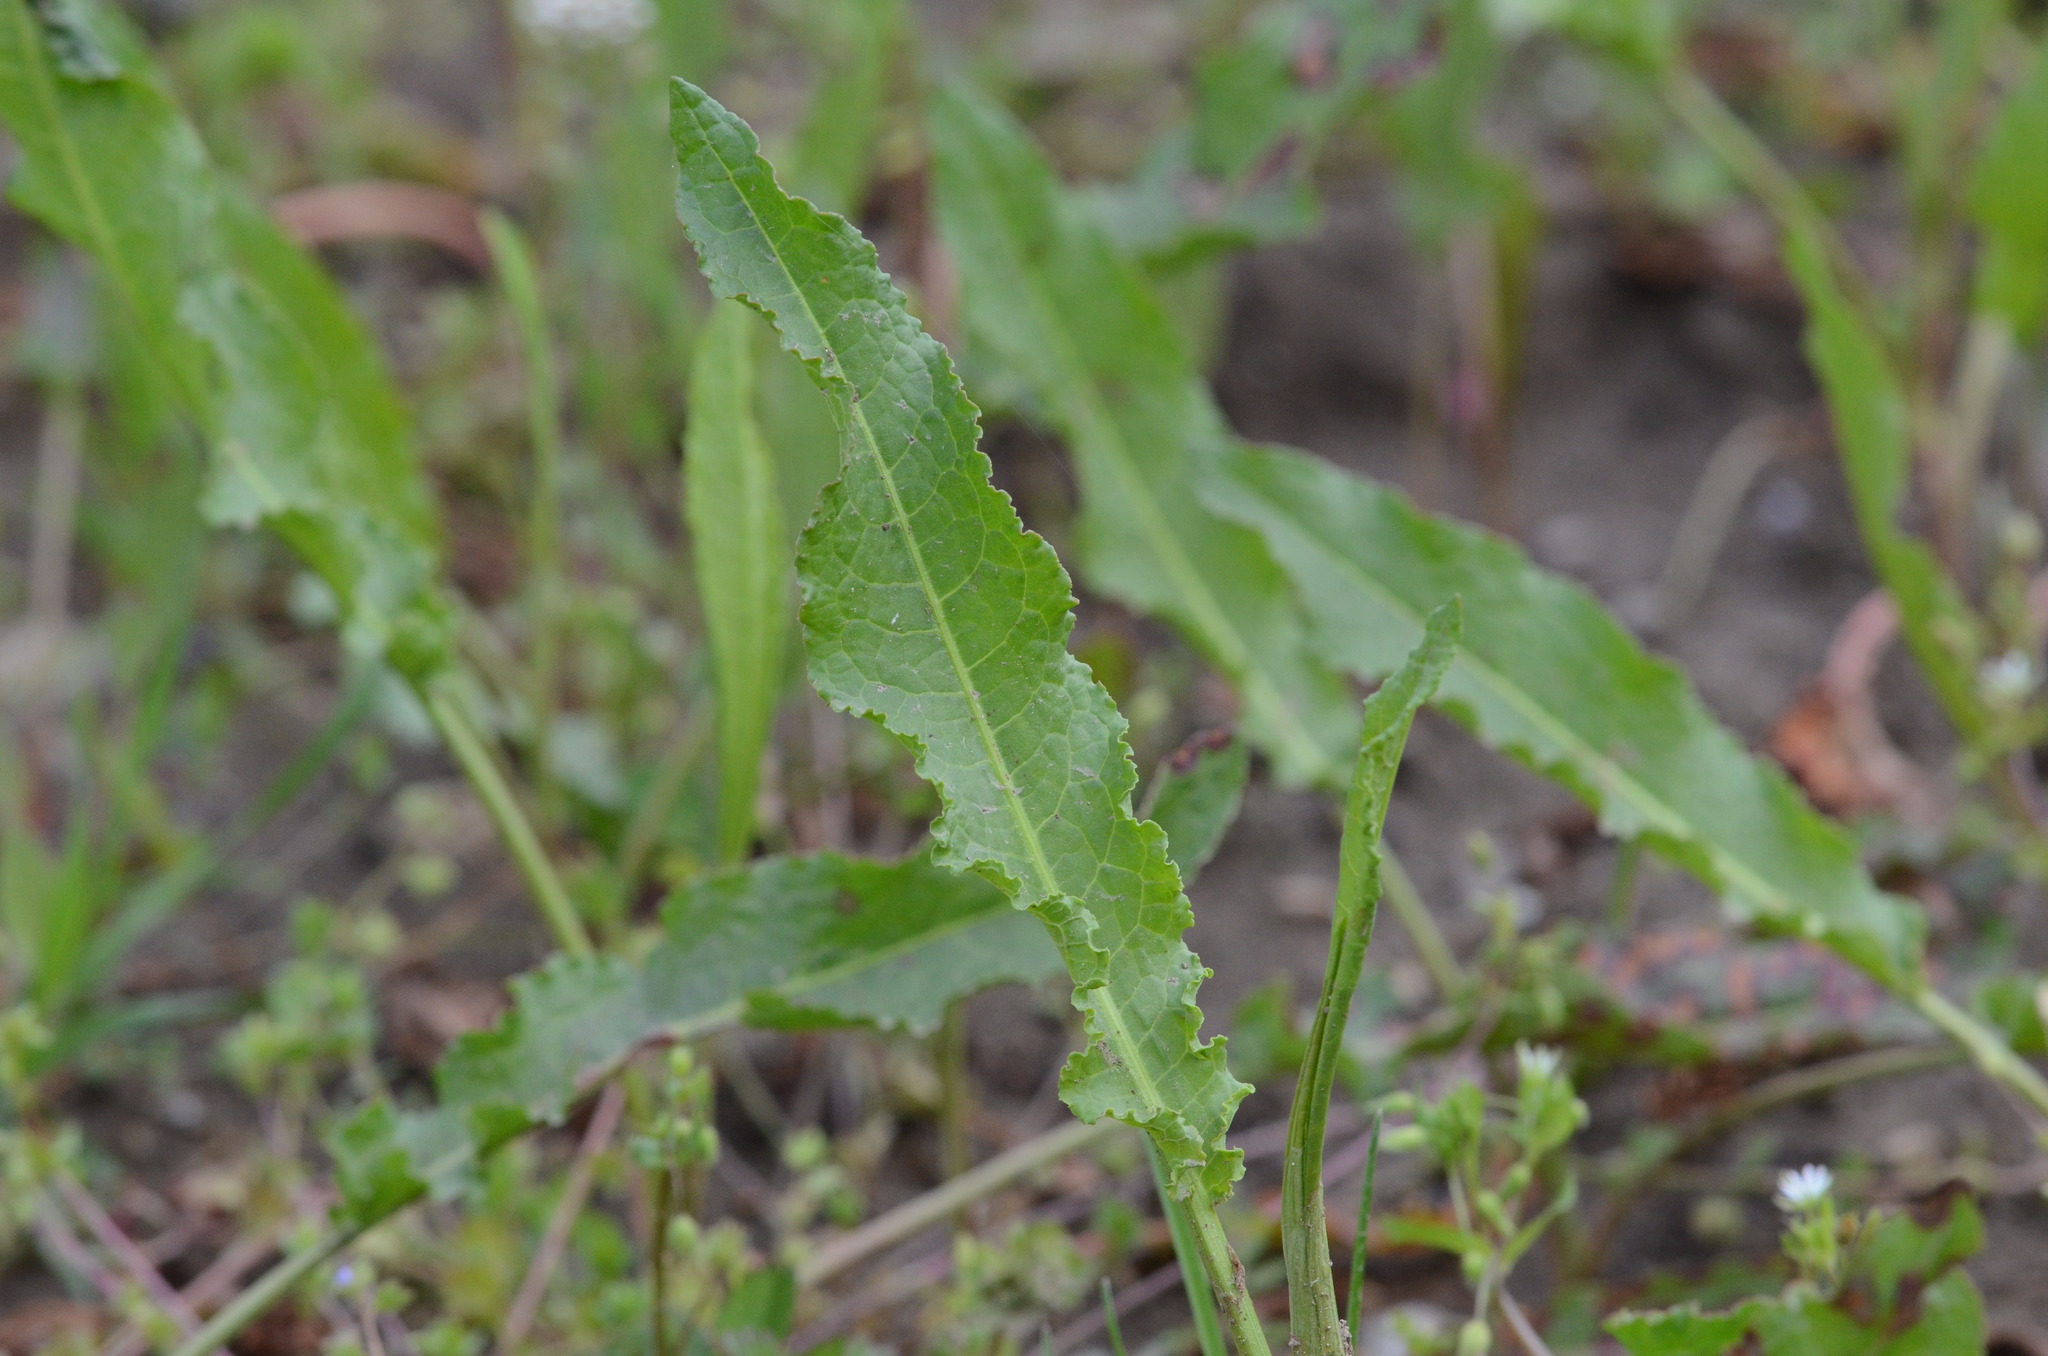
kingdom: Plantae
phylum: Tracheophyta
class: Magnoliopsida
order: Caryophyllales
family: Polygonaceae
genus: Rumex
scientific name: Rumex crispus
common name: Curled dock
